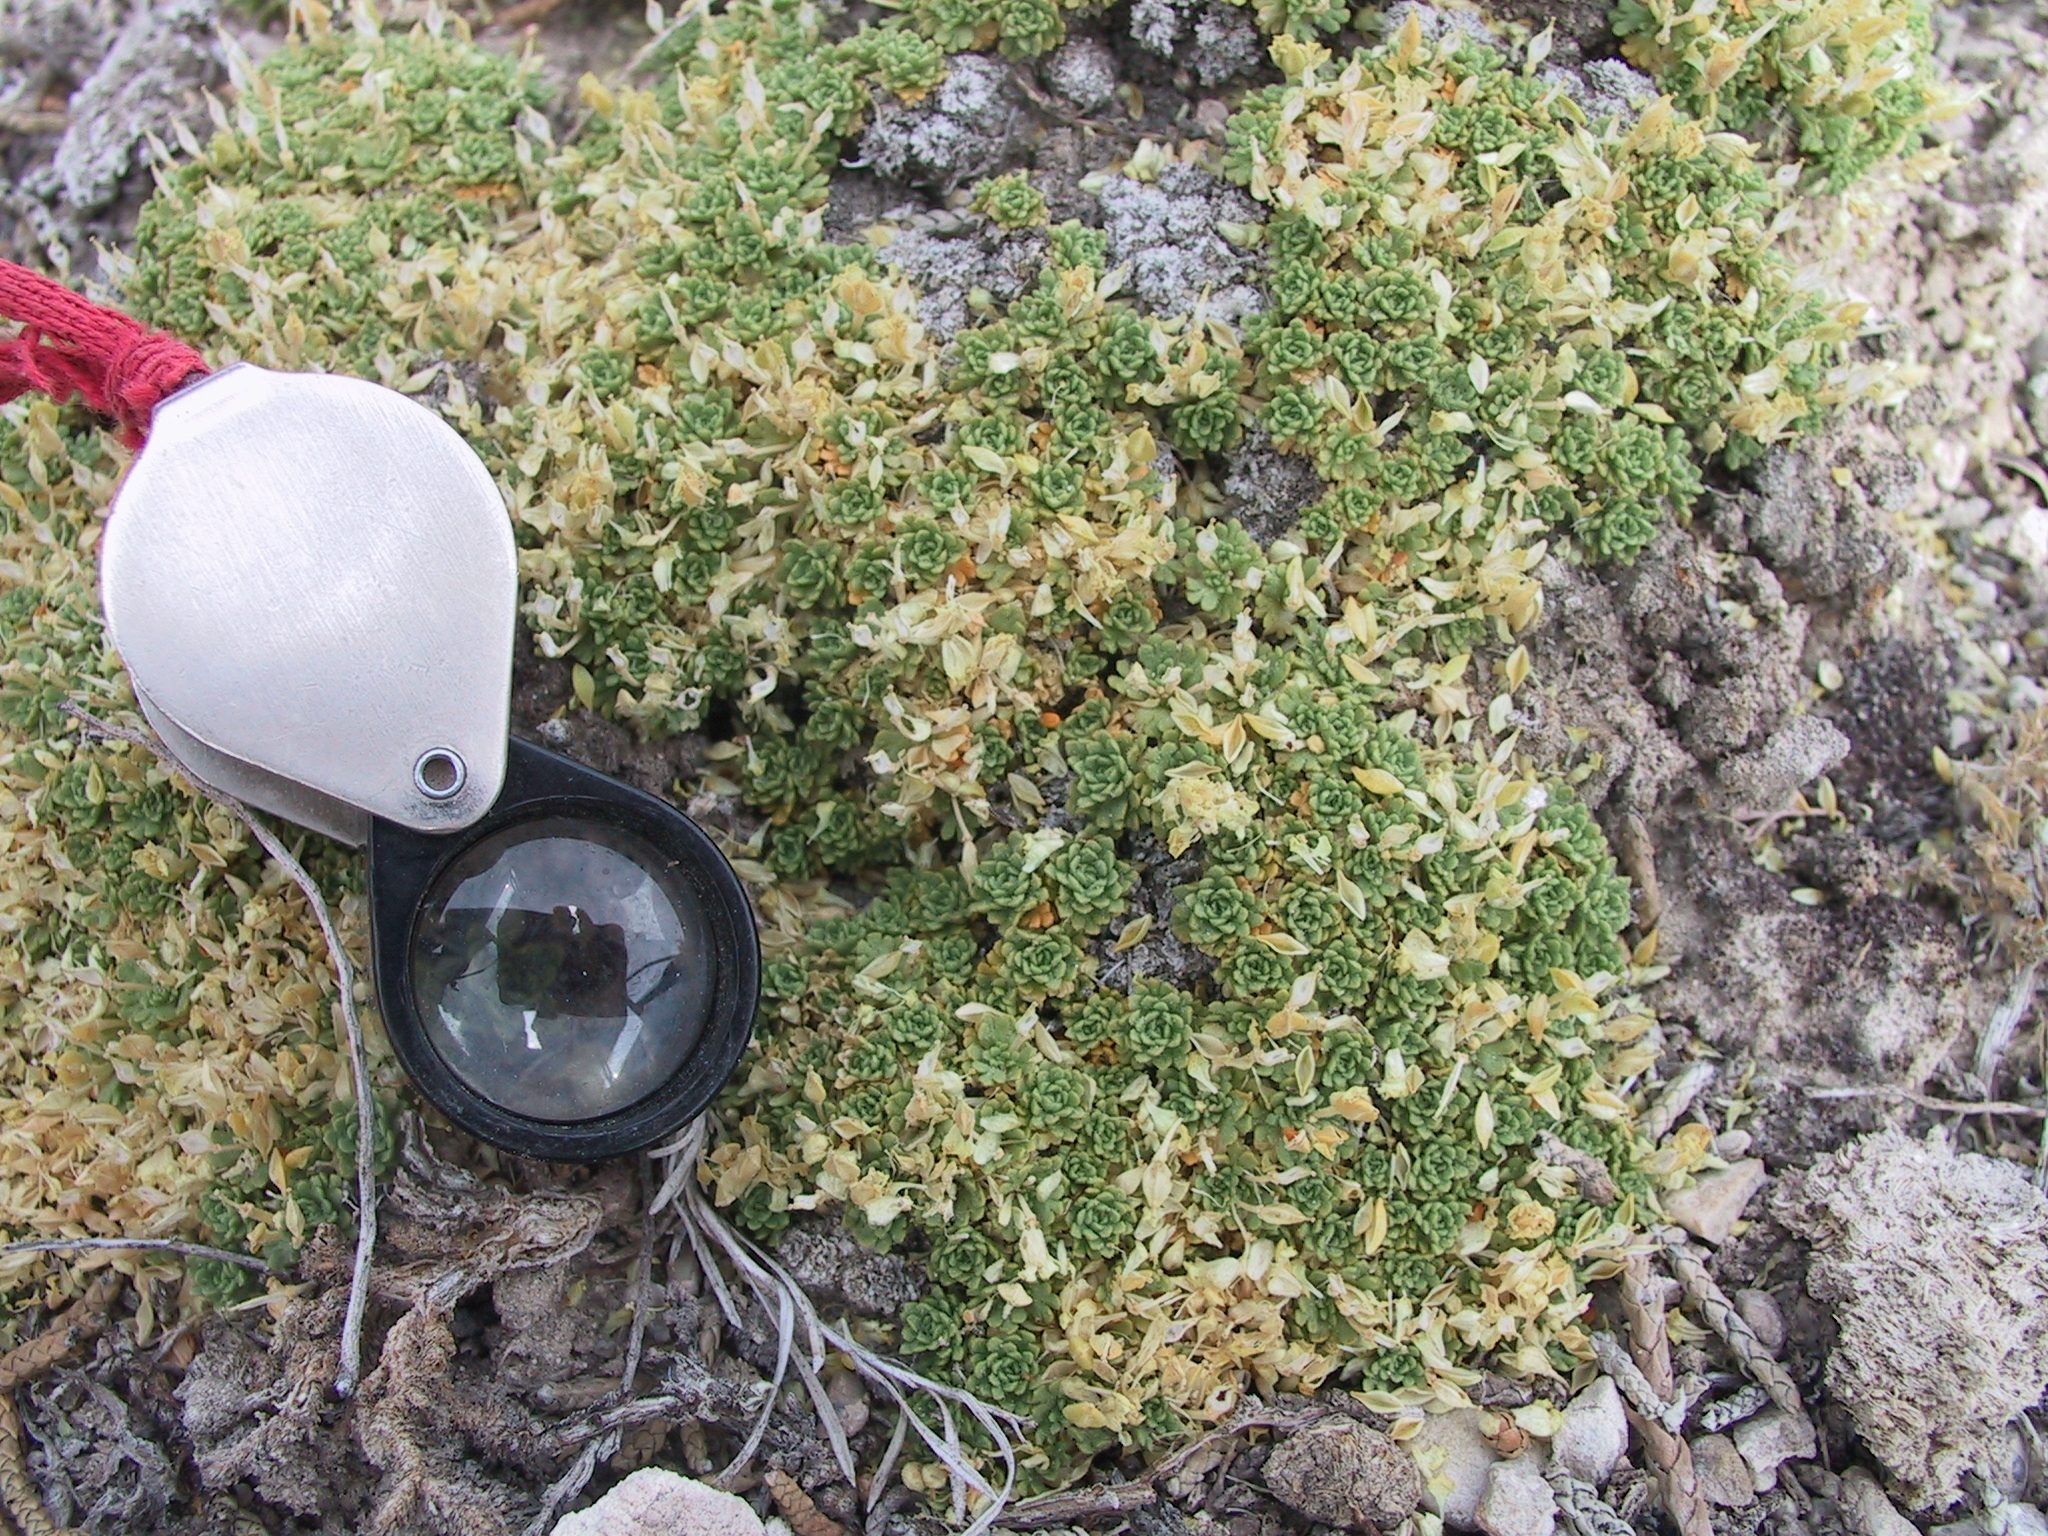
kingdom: Plantae
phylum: Tracheophyta
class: Magnoliopsida
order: Brassicales
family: Brassicaceae
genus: Lepidium
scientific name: Lepidium nanum
